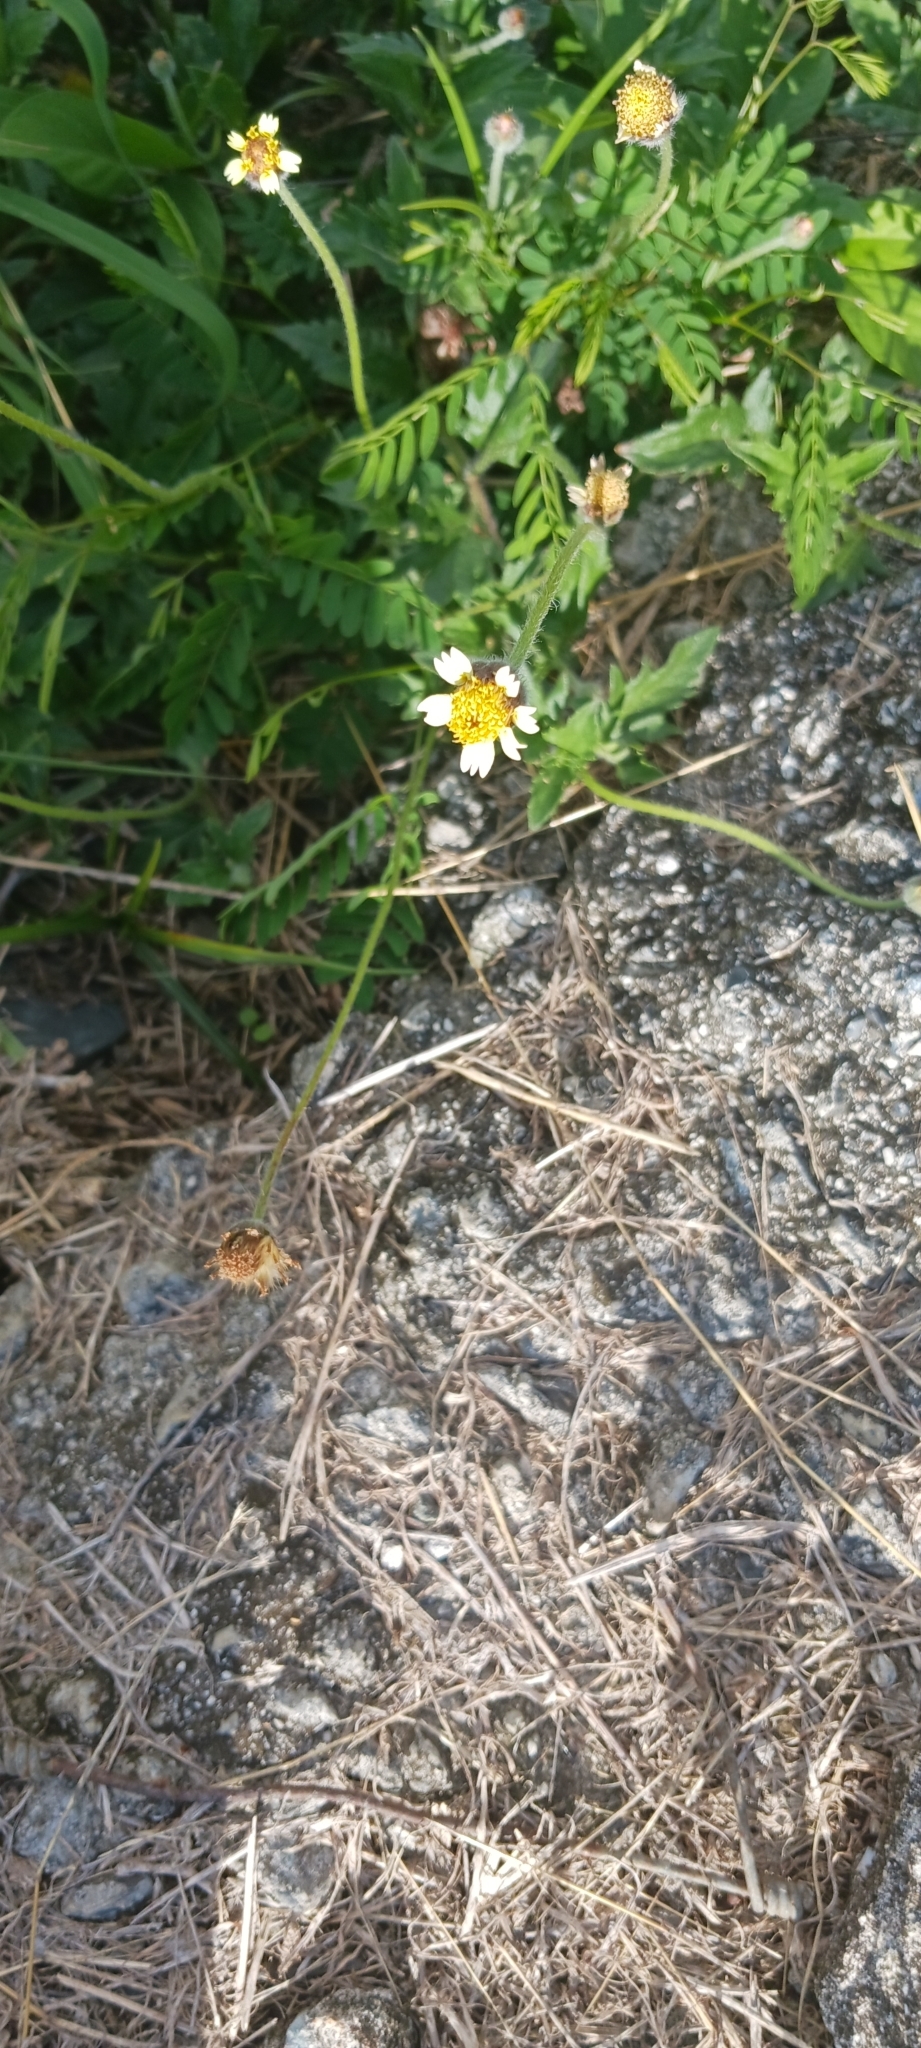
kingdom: Plantae
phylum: Tracheophyta
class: Magnoliopsida
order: Asterales
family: Asteraceae
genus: Tridax
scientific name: Tridax procumbens
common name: Coatbuttons
